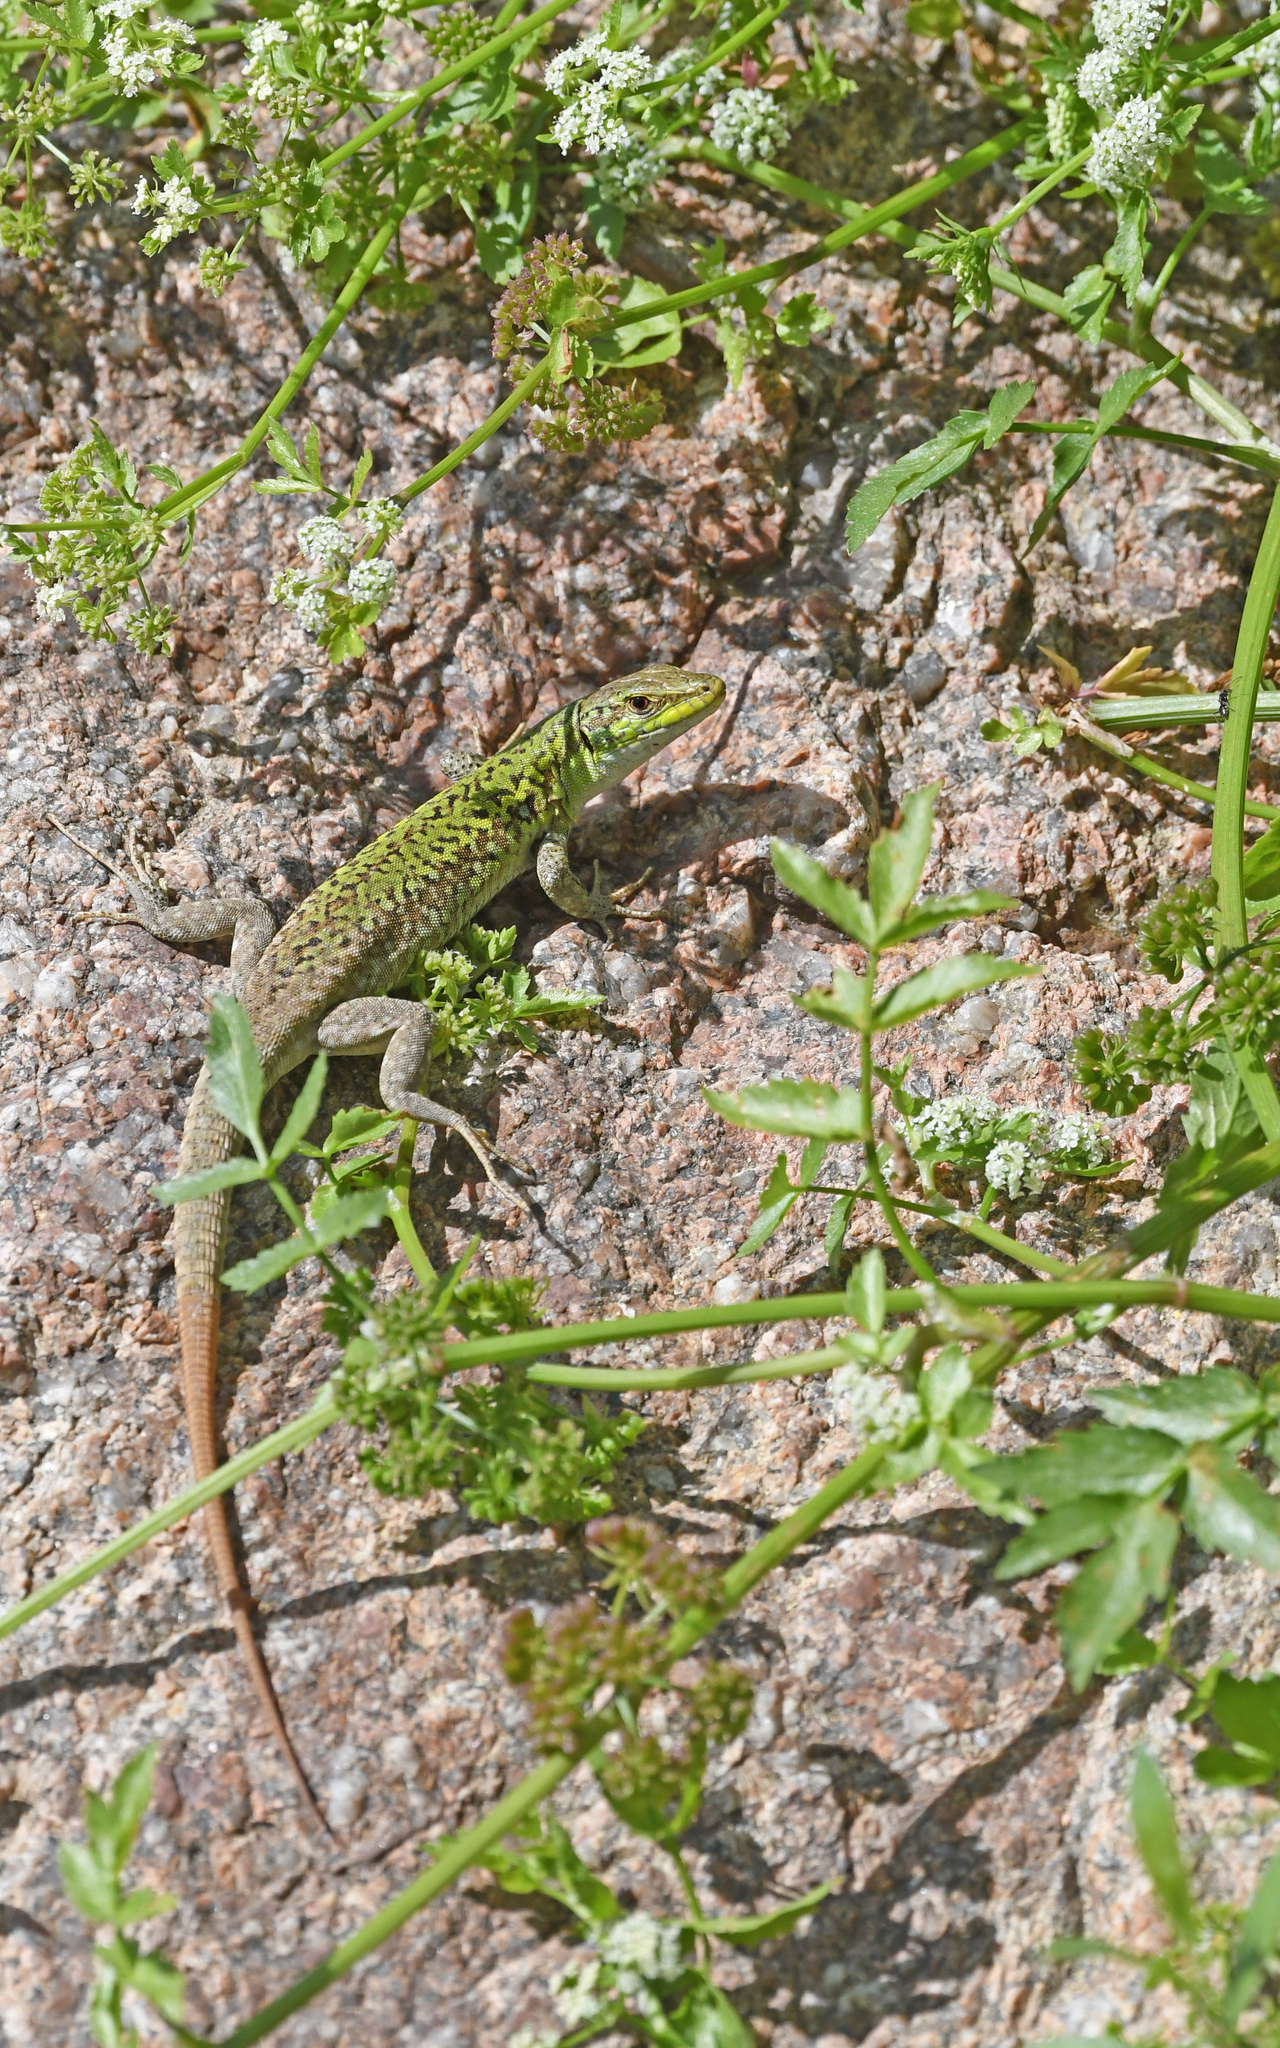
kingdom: Animalia
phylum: Chordata
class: Squamata
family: Lacertidae
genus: Podarcis
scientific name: Podarcis siculus
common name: Italian wall lizard
